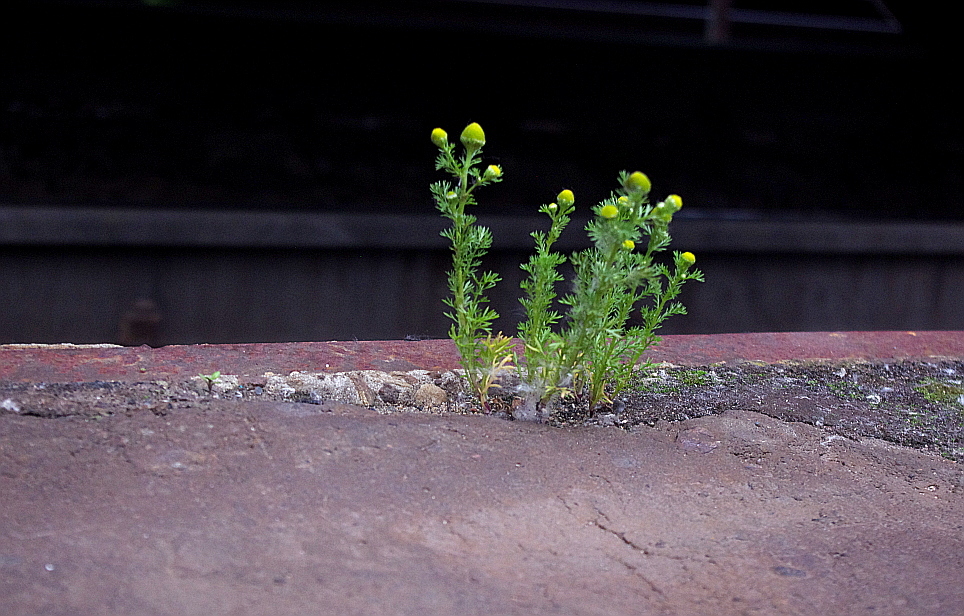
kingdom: Plantae
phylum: Tracheophyta
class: Magnoliopsida
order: Asterales
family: Asteraceae
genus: Matricaria
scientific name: Matricaria discoidea
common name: Disc mayweed
